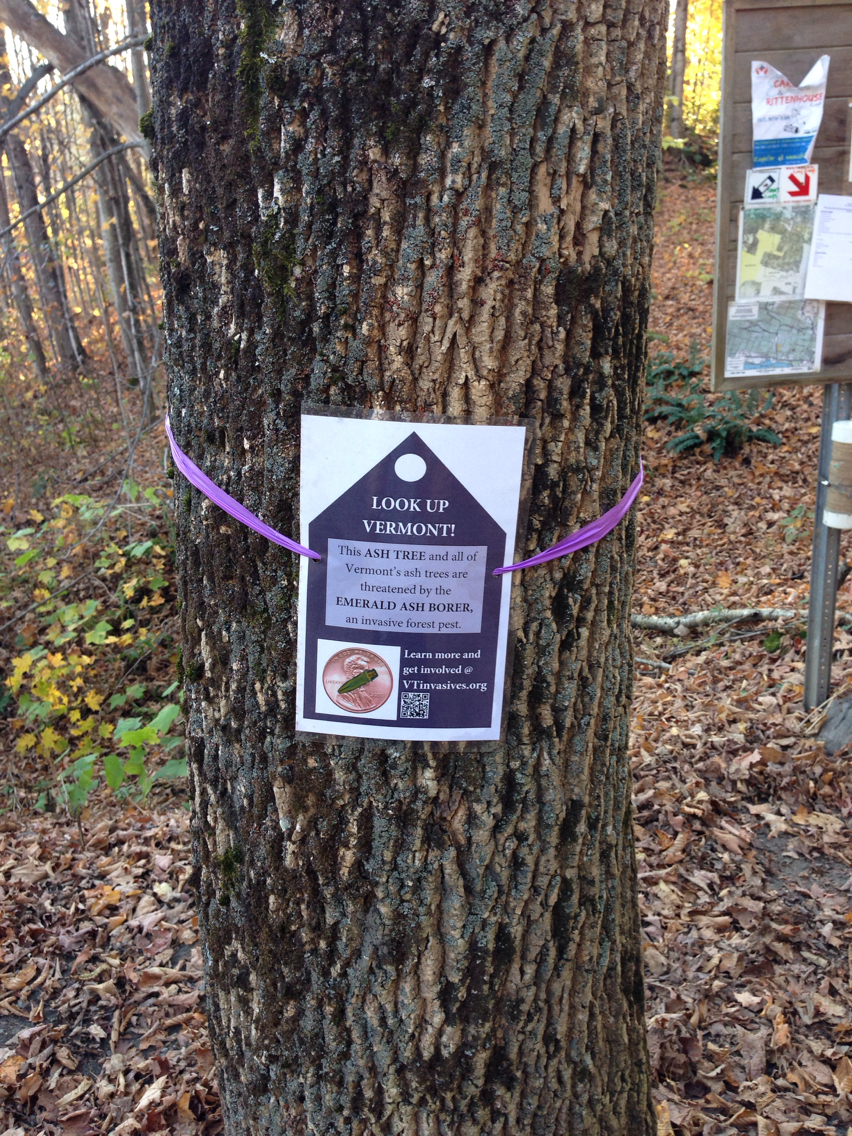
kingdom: Plantae
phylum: Tracheophyta
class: Magnoliopsida
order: Lamiales
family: Oleaceae
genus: Fraxinus
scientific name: Fraxinus americana
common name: White ash
